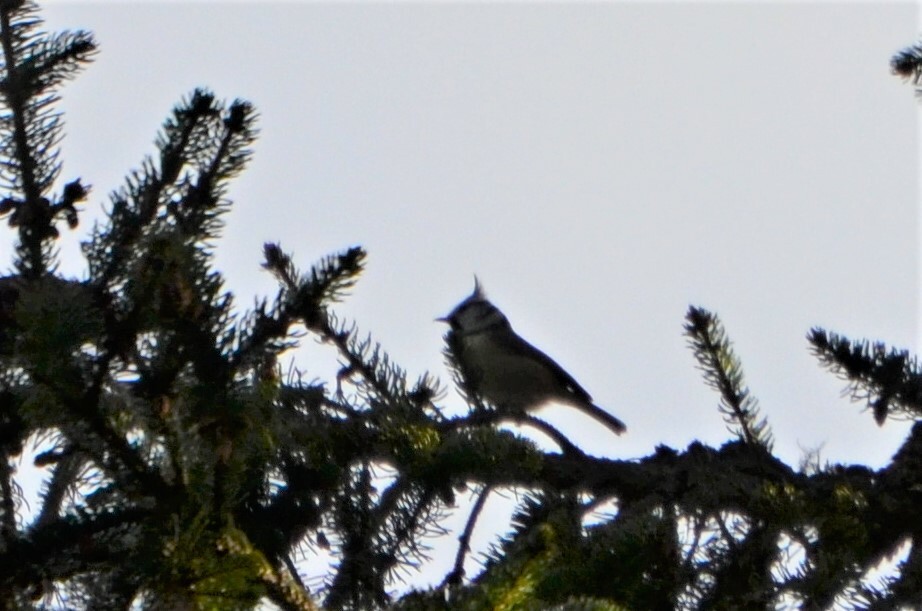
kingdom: Animalia
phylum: Chordata
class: Aves
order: Passeriformes
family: Paridae
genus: Lophophanes
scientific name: Lophophanes cristatus
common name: European crested tit
